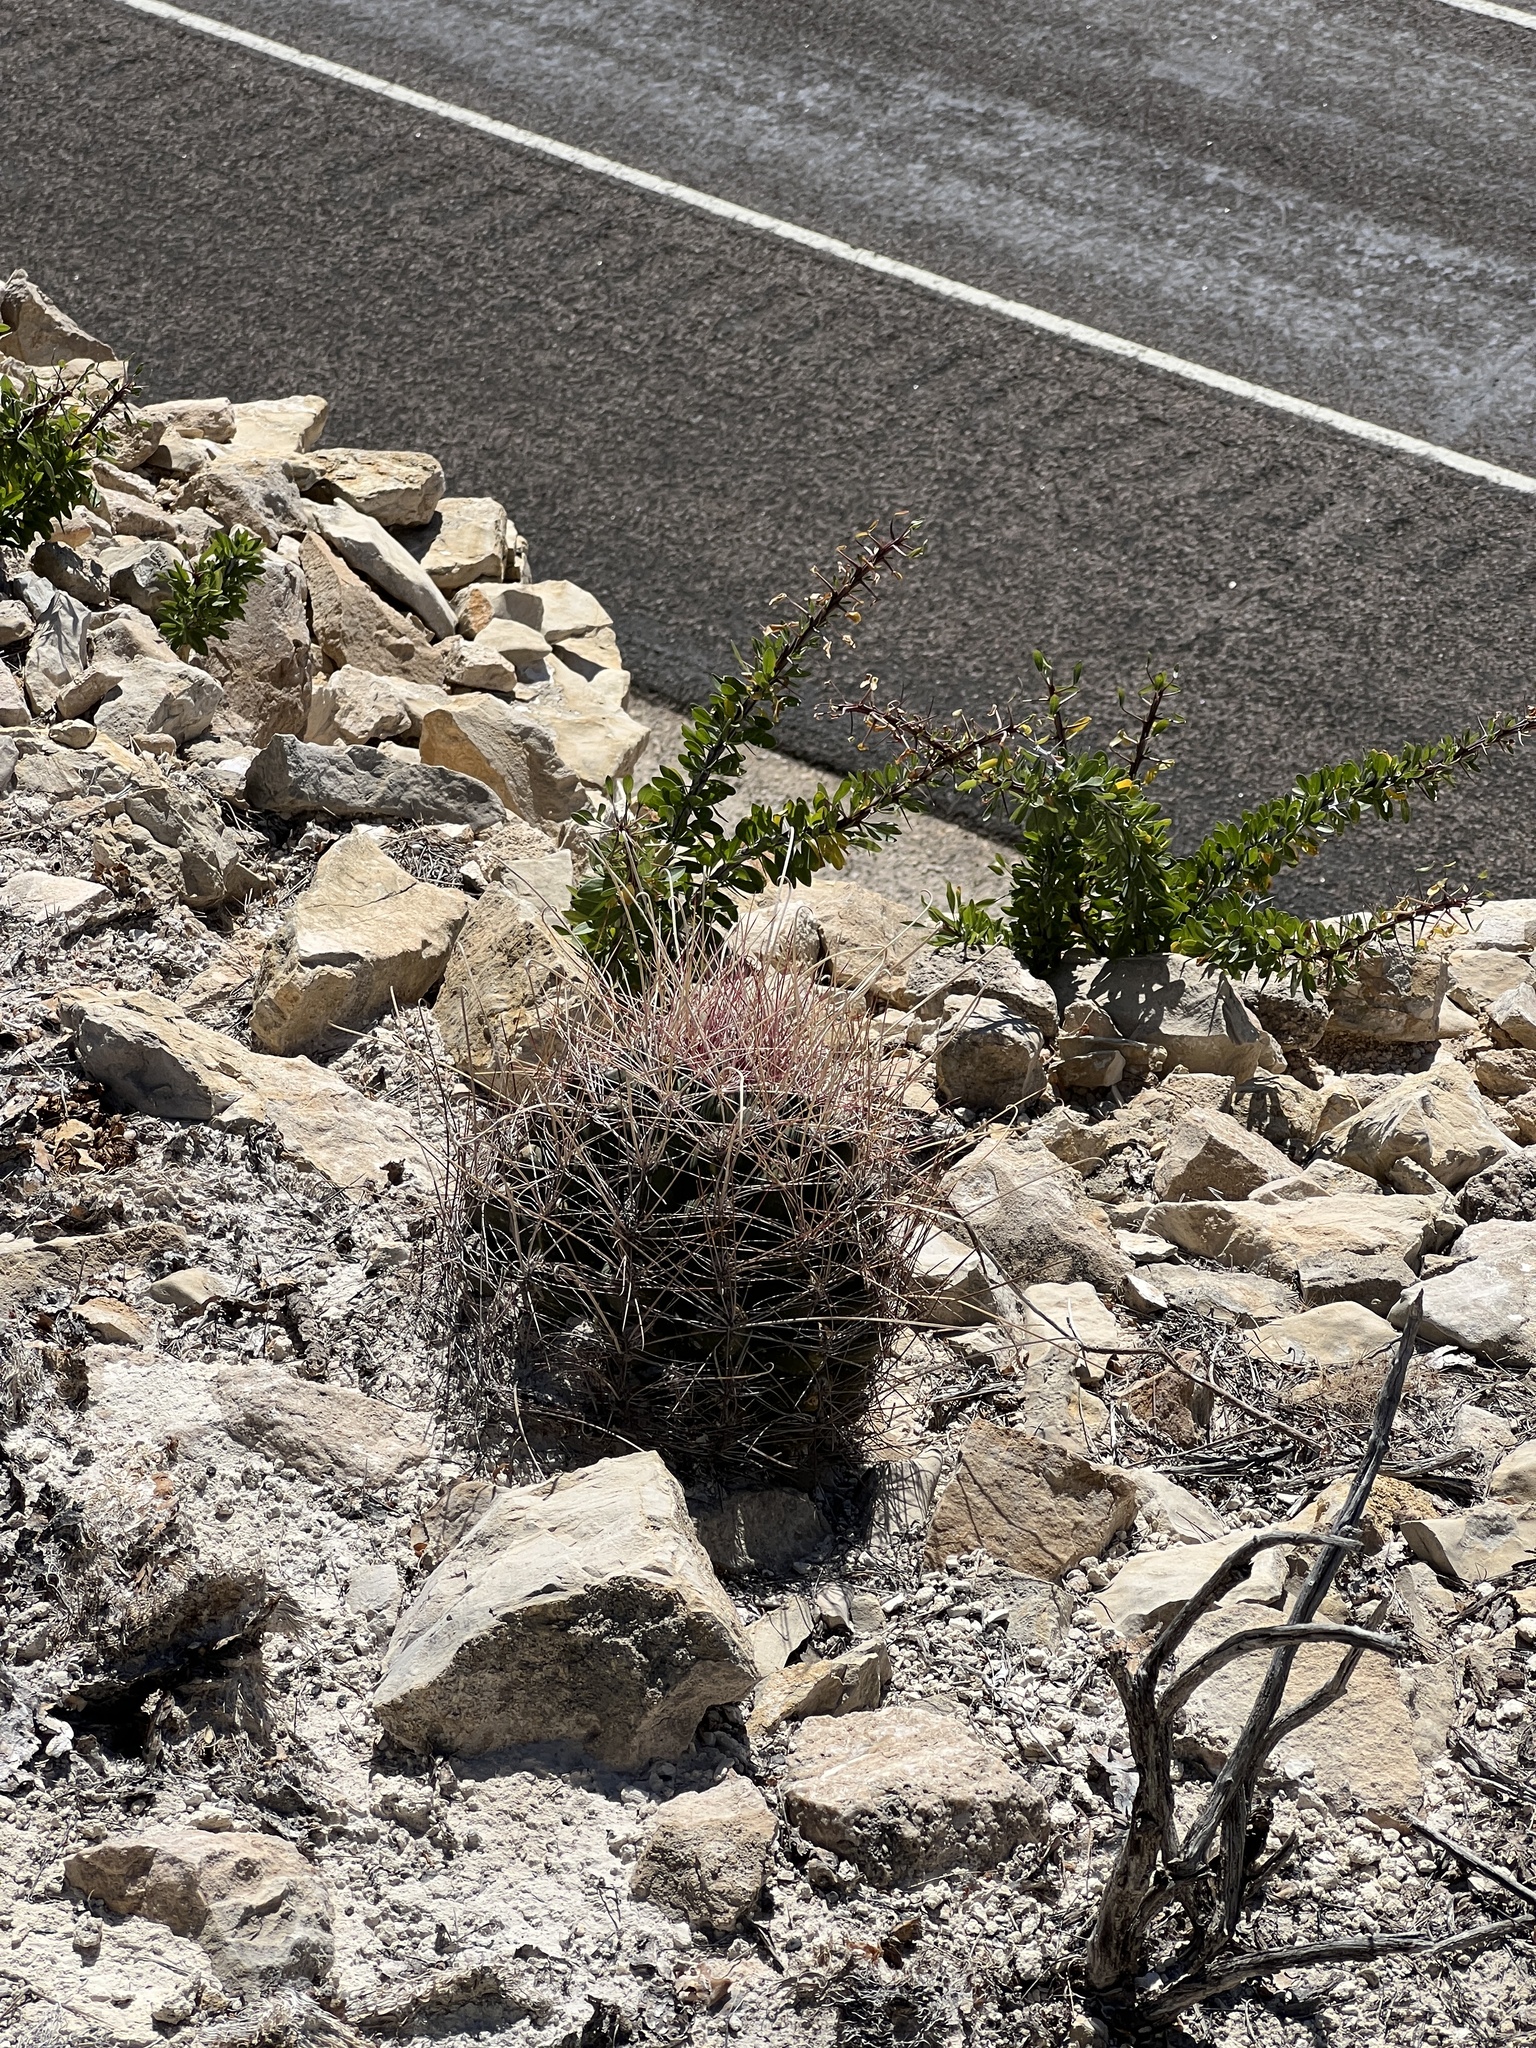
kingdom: Plantae
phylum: Tracheophyta
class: Magnoliopsida
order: Caryophyllales
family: Cactaceae
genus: Bisnaga
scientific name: Bisnaga hamatacantha
